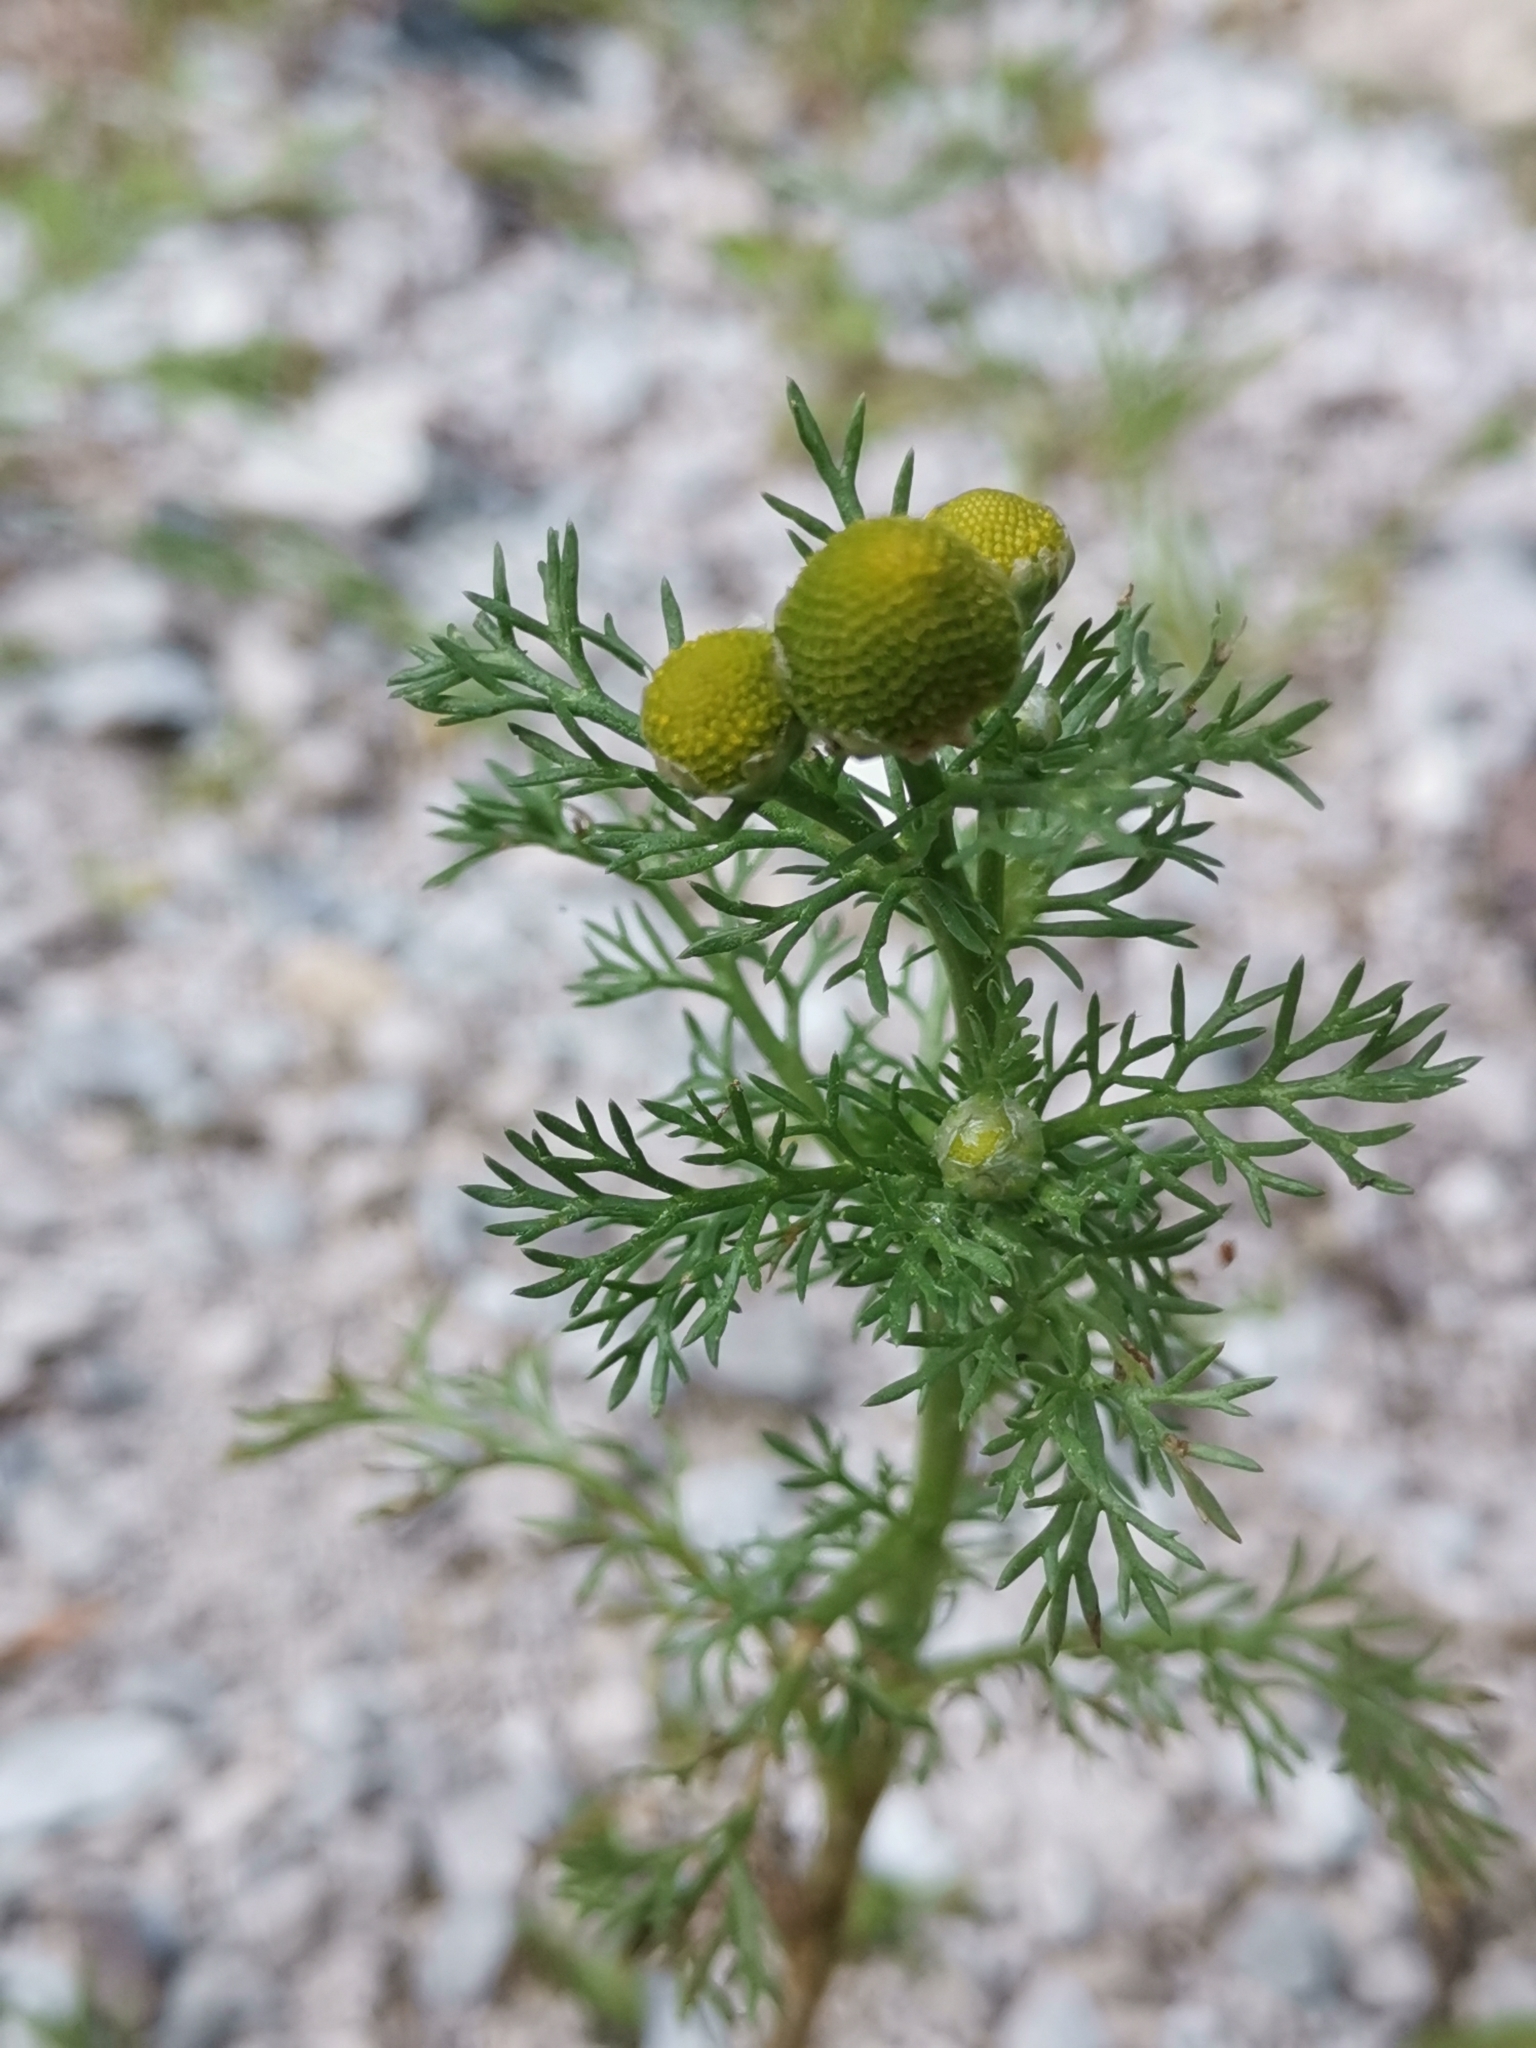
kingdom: Plantae
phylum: Tracheophyta
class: Magnoliopsida
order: Asterales
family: Asteraceae
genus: Matricaria
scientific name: Matricaria discoidea
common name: Disc mayweed
